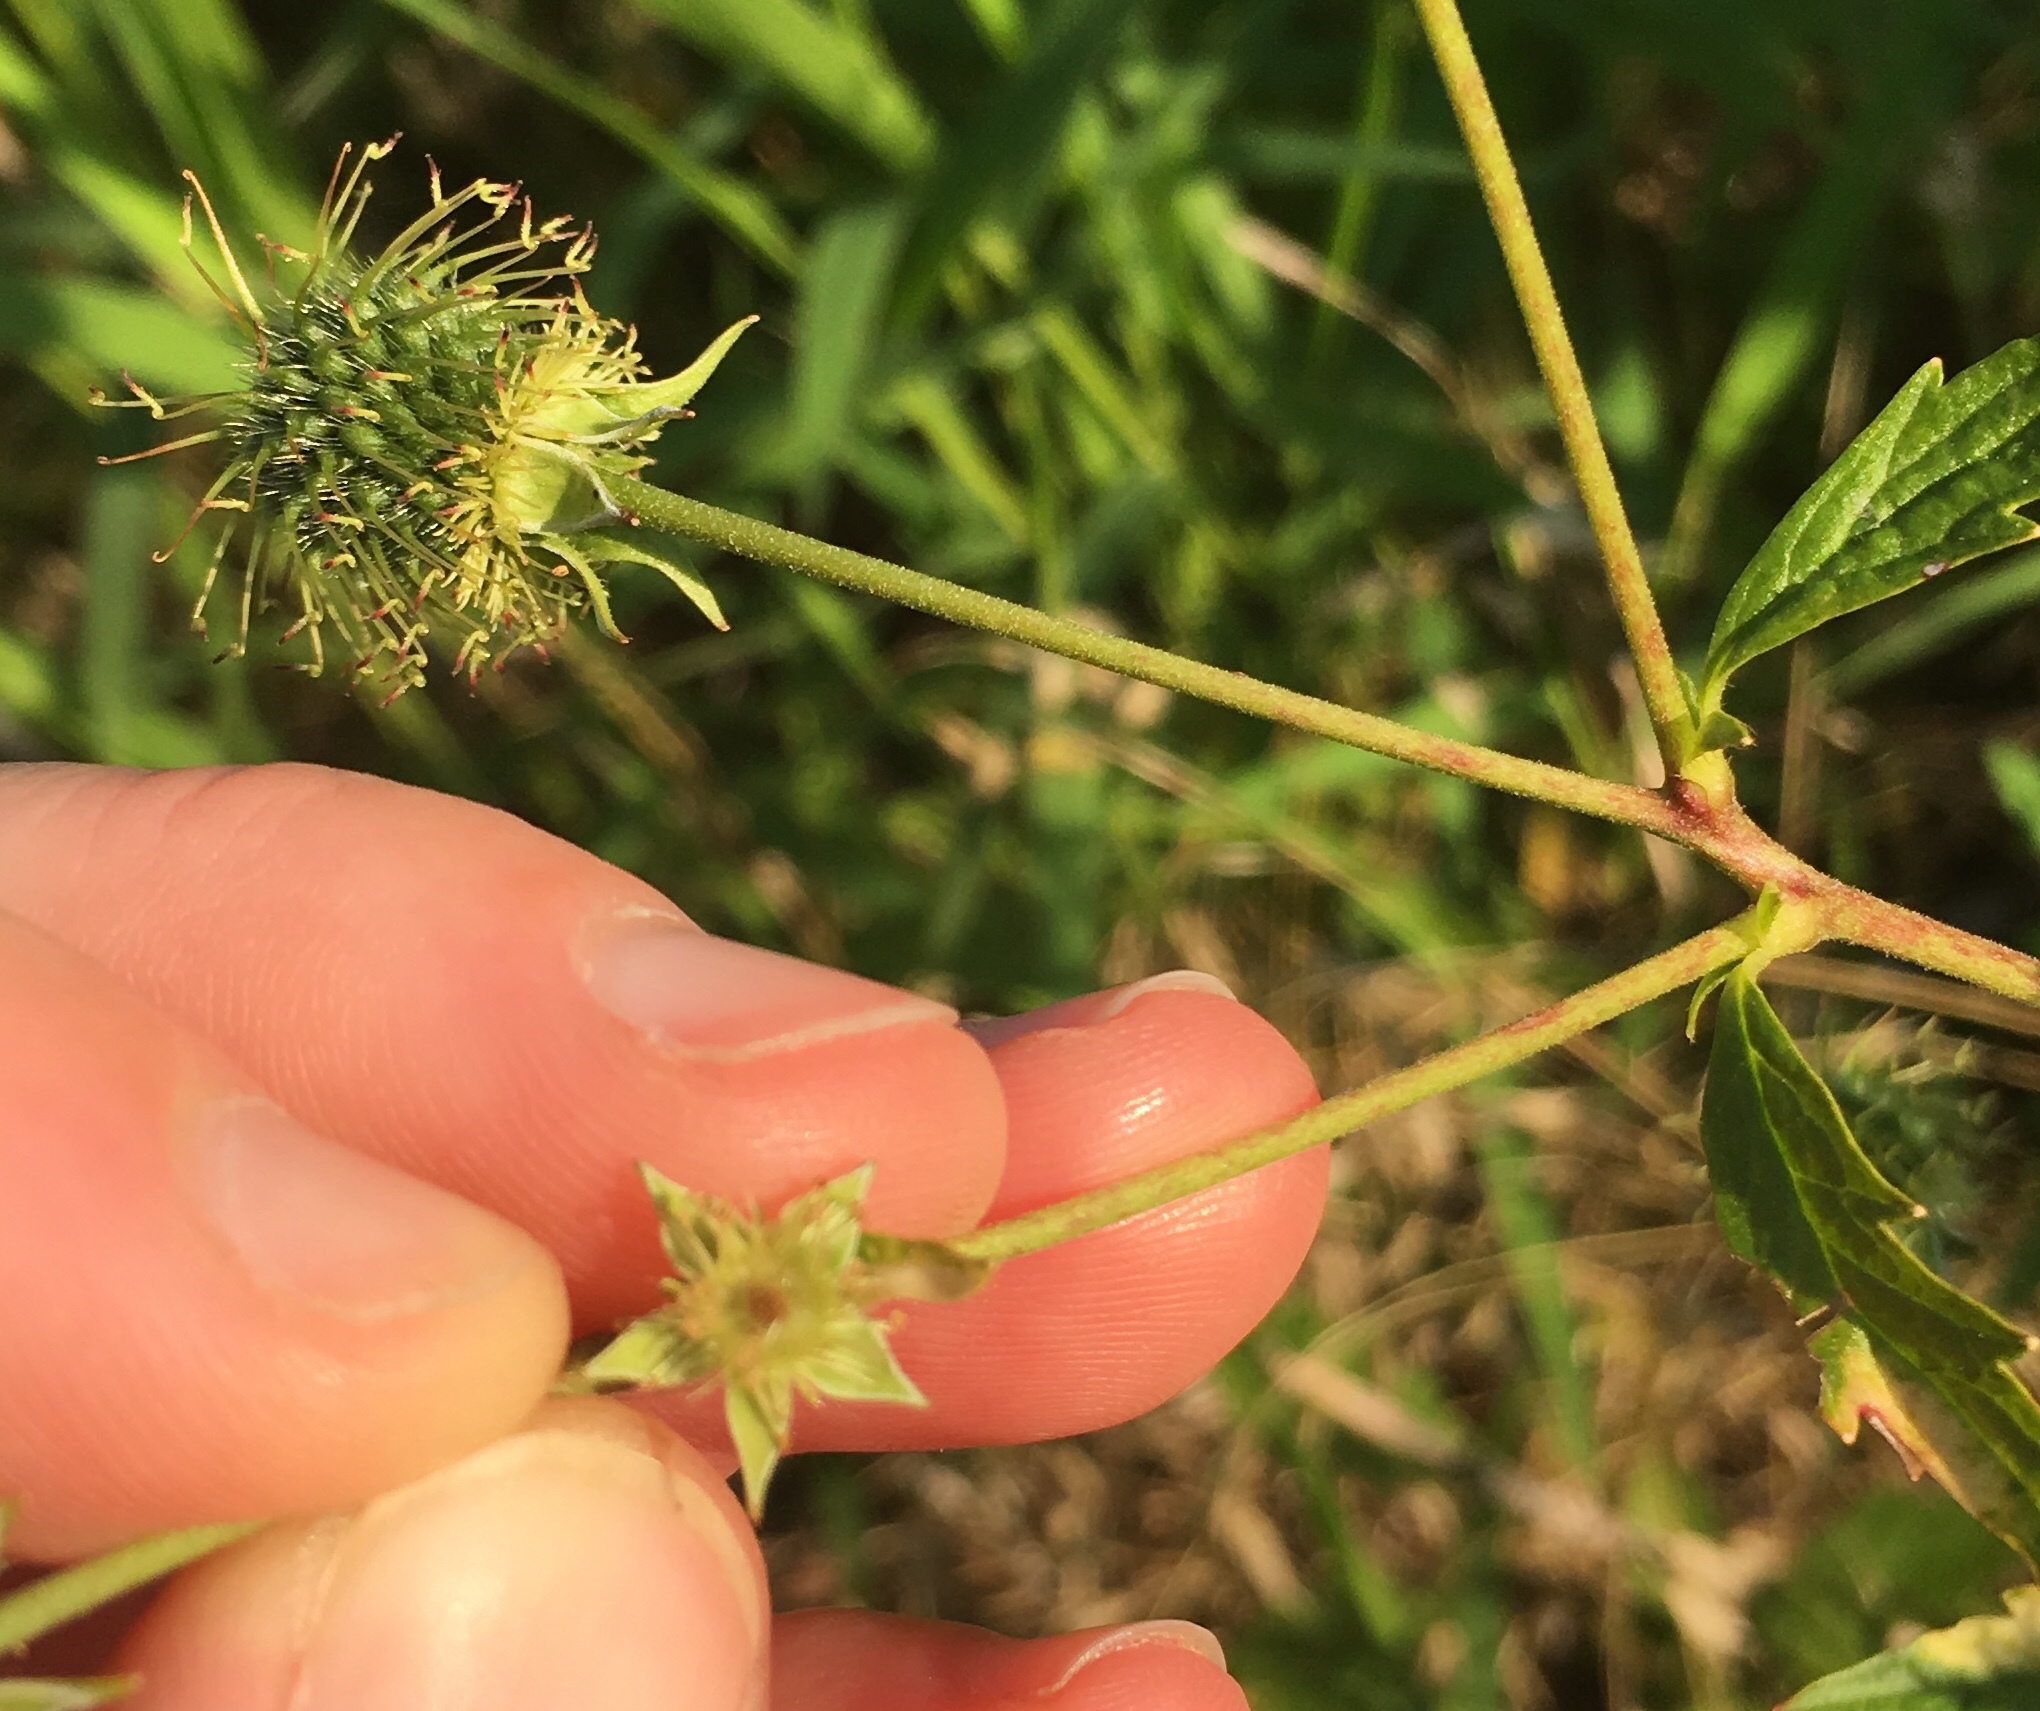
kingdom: Plantae
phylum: Tracheophyta
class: Magnoliopsida
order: Rosales
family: Rosaceae
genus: Geum
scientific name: Geum canadense
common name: White avens
